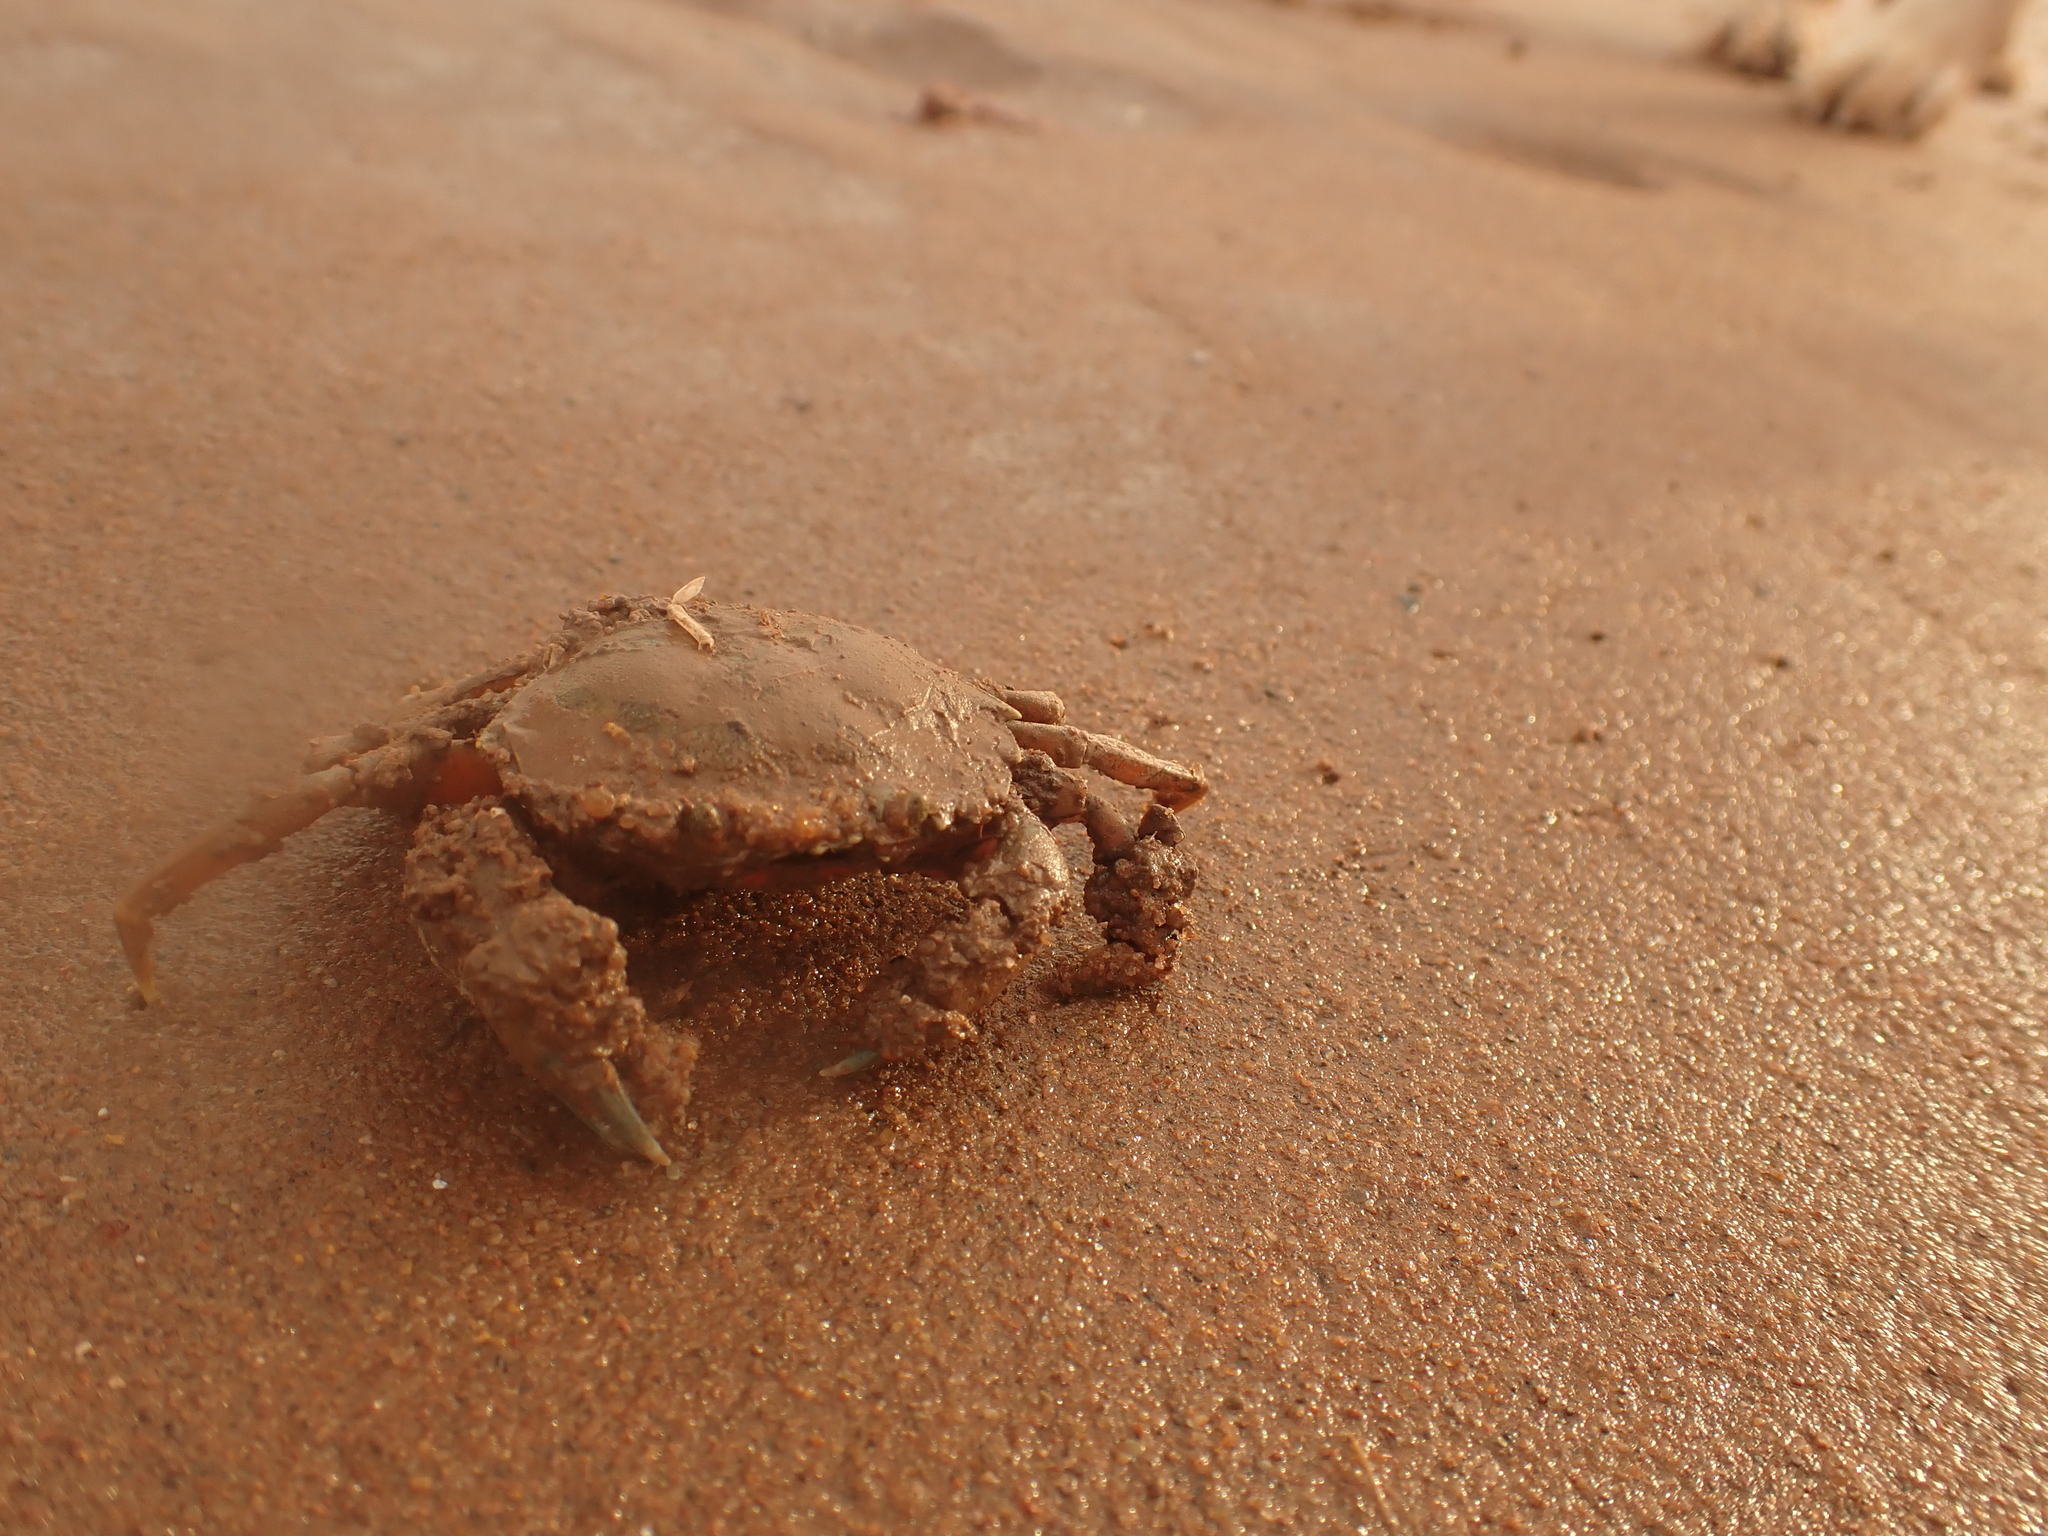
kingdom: Animalia
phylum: Arthropoda
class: Malacostraca
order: Decapoda
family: Carcinidae
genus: Carcinus
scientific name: Carcinus maenas
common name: European green crab
